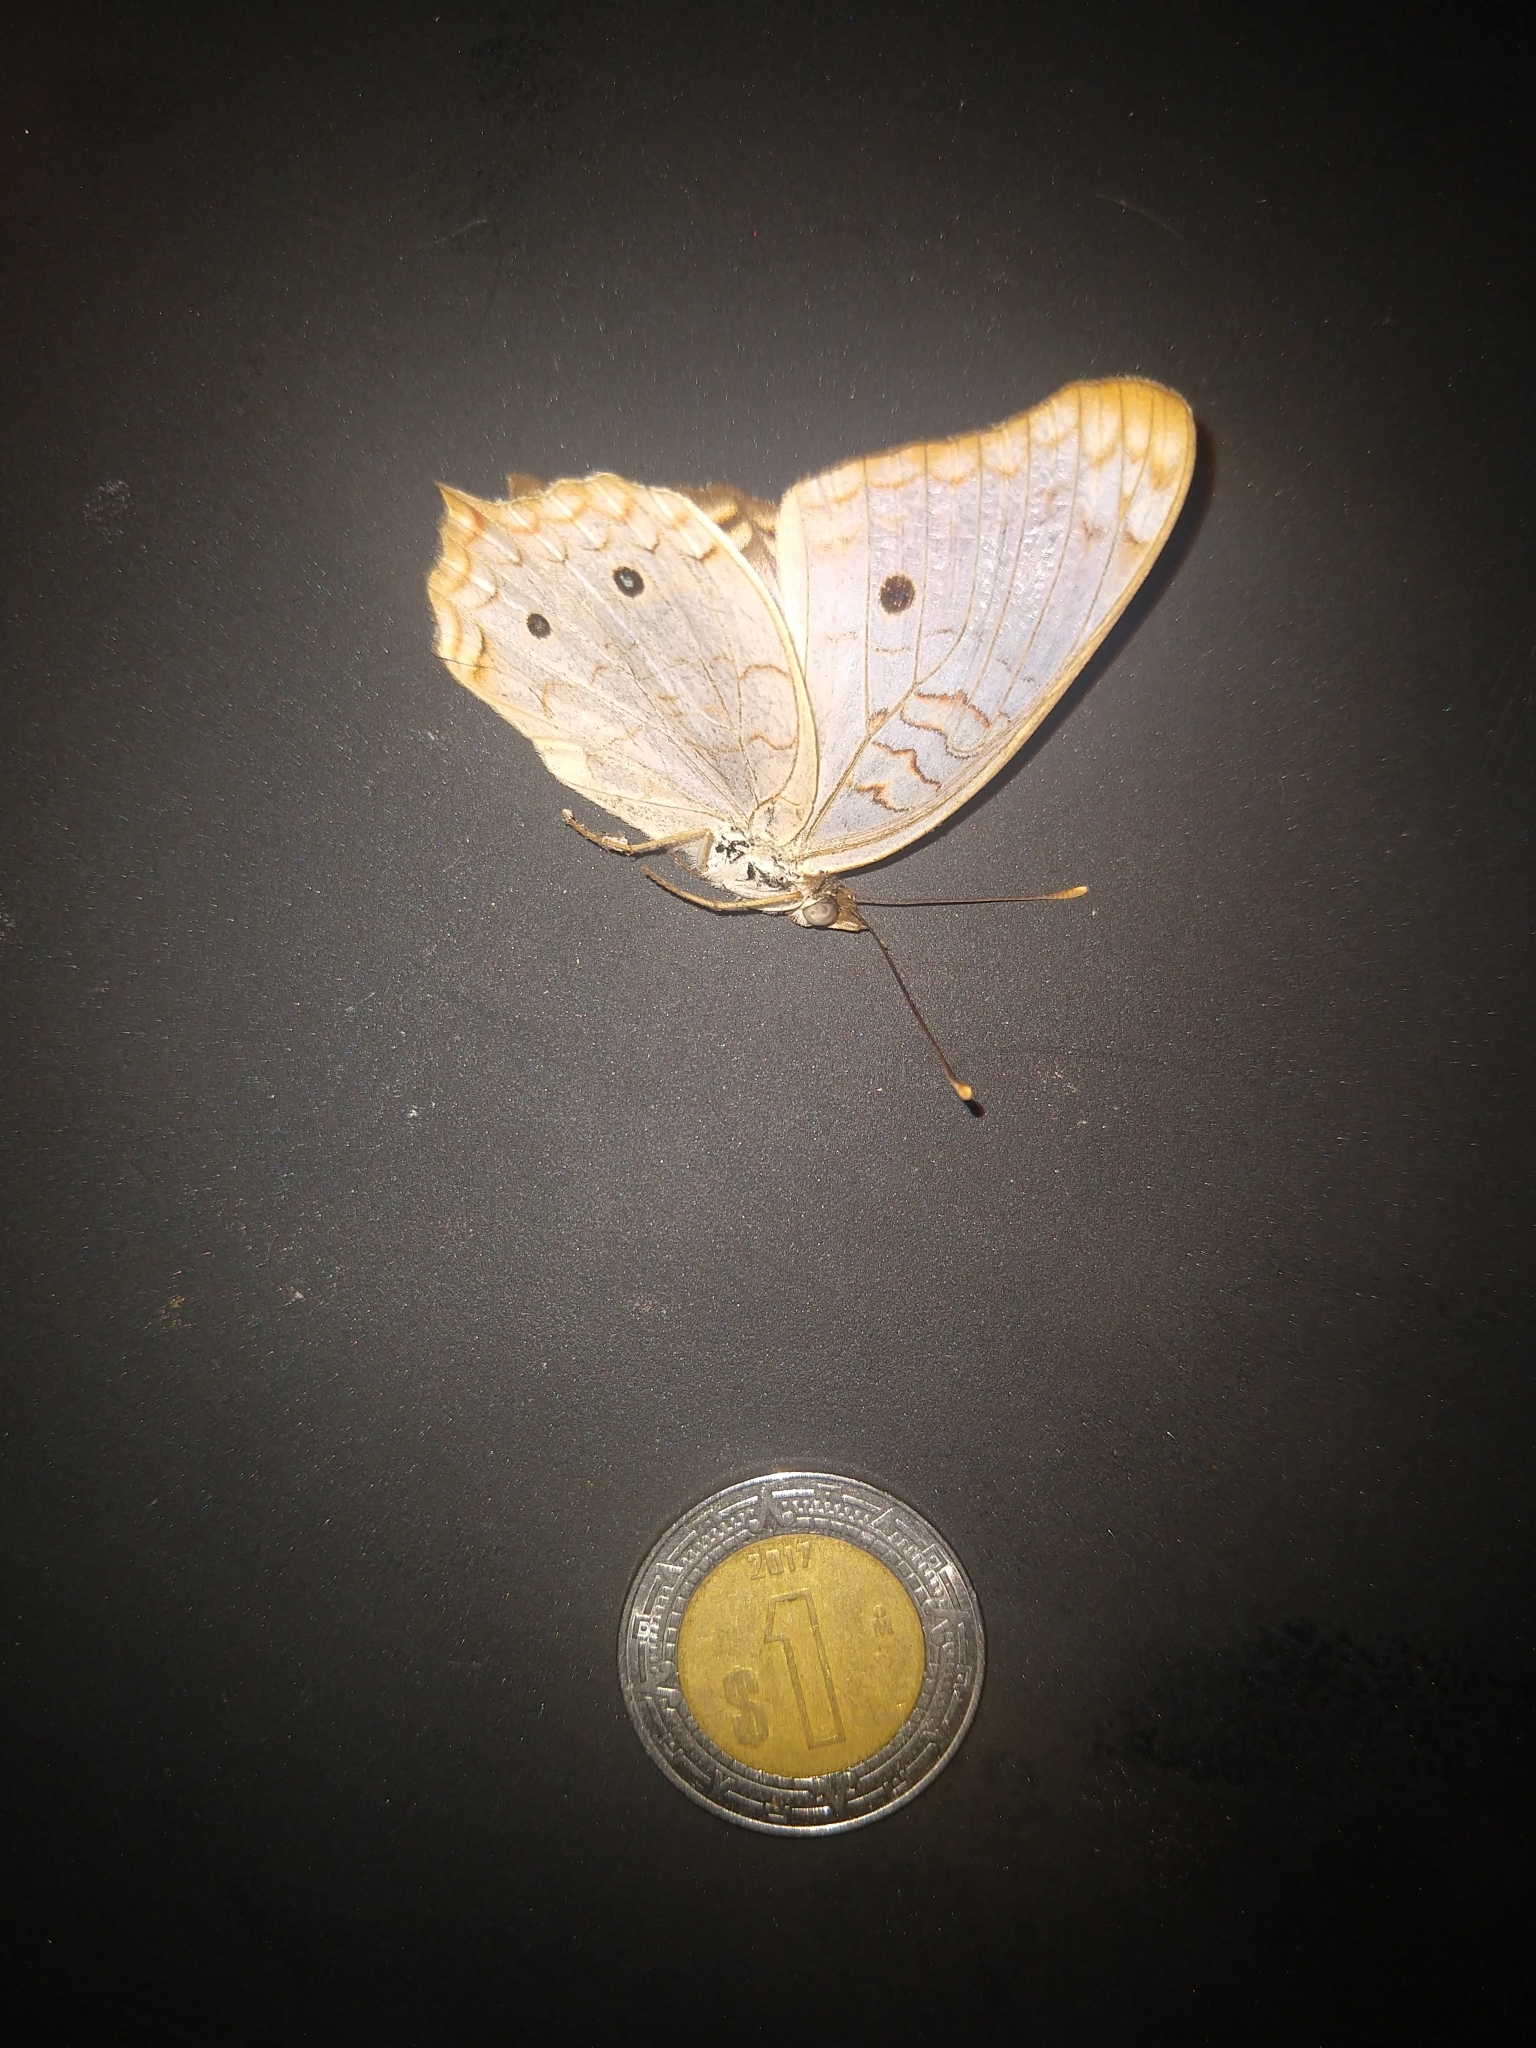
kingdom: Animalia
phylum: Arthropoda
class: Insecta
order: Lepidoptera
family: Nymphalidae
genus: Anartia
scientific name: Anartia jatrophae
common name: White peacock
